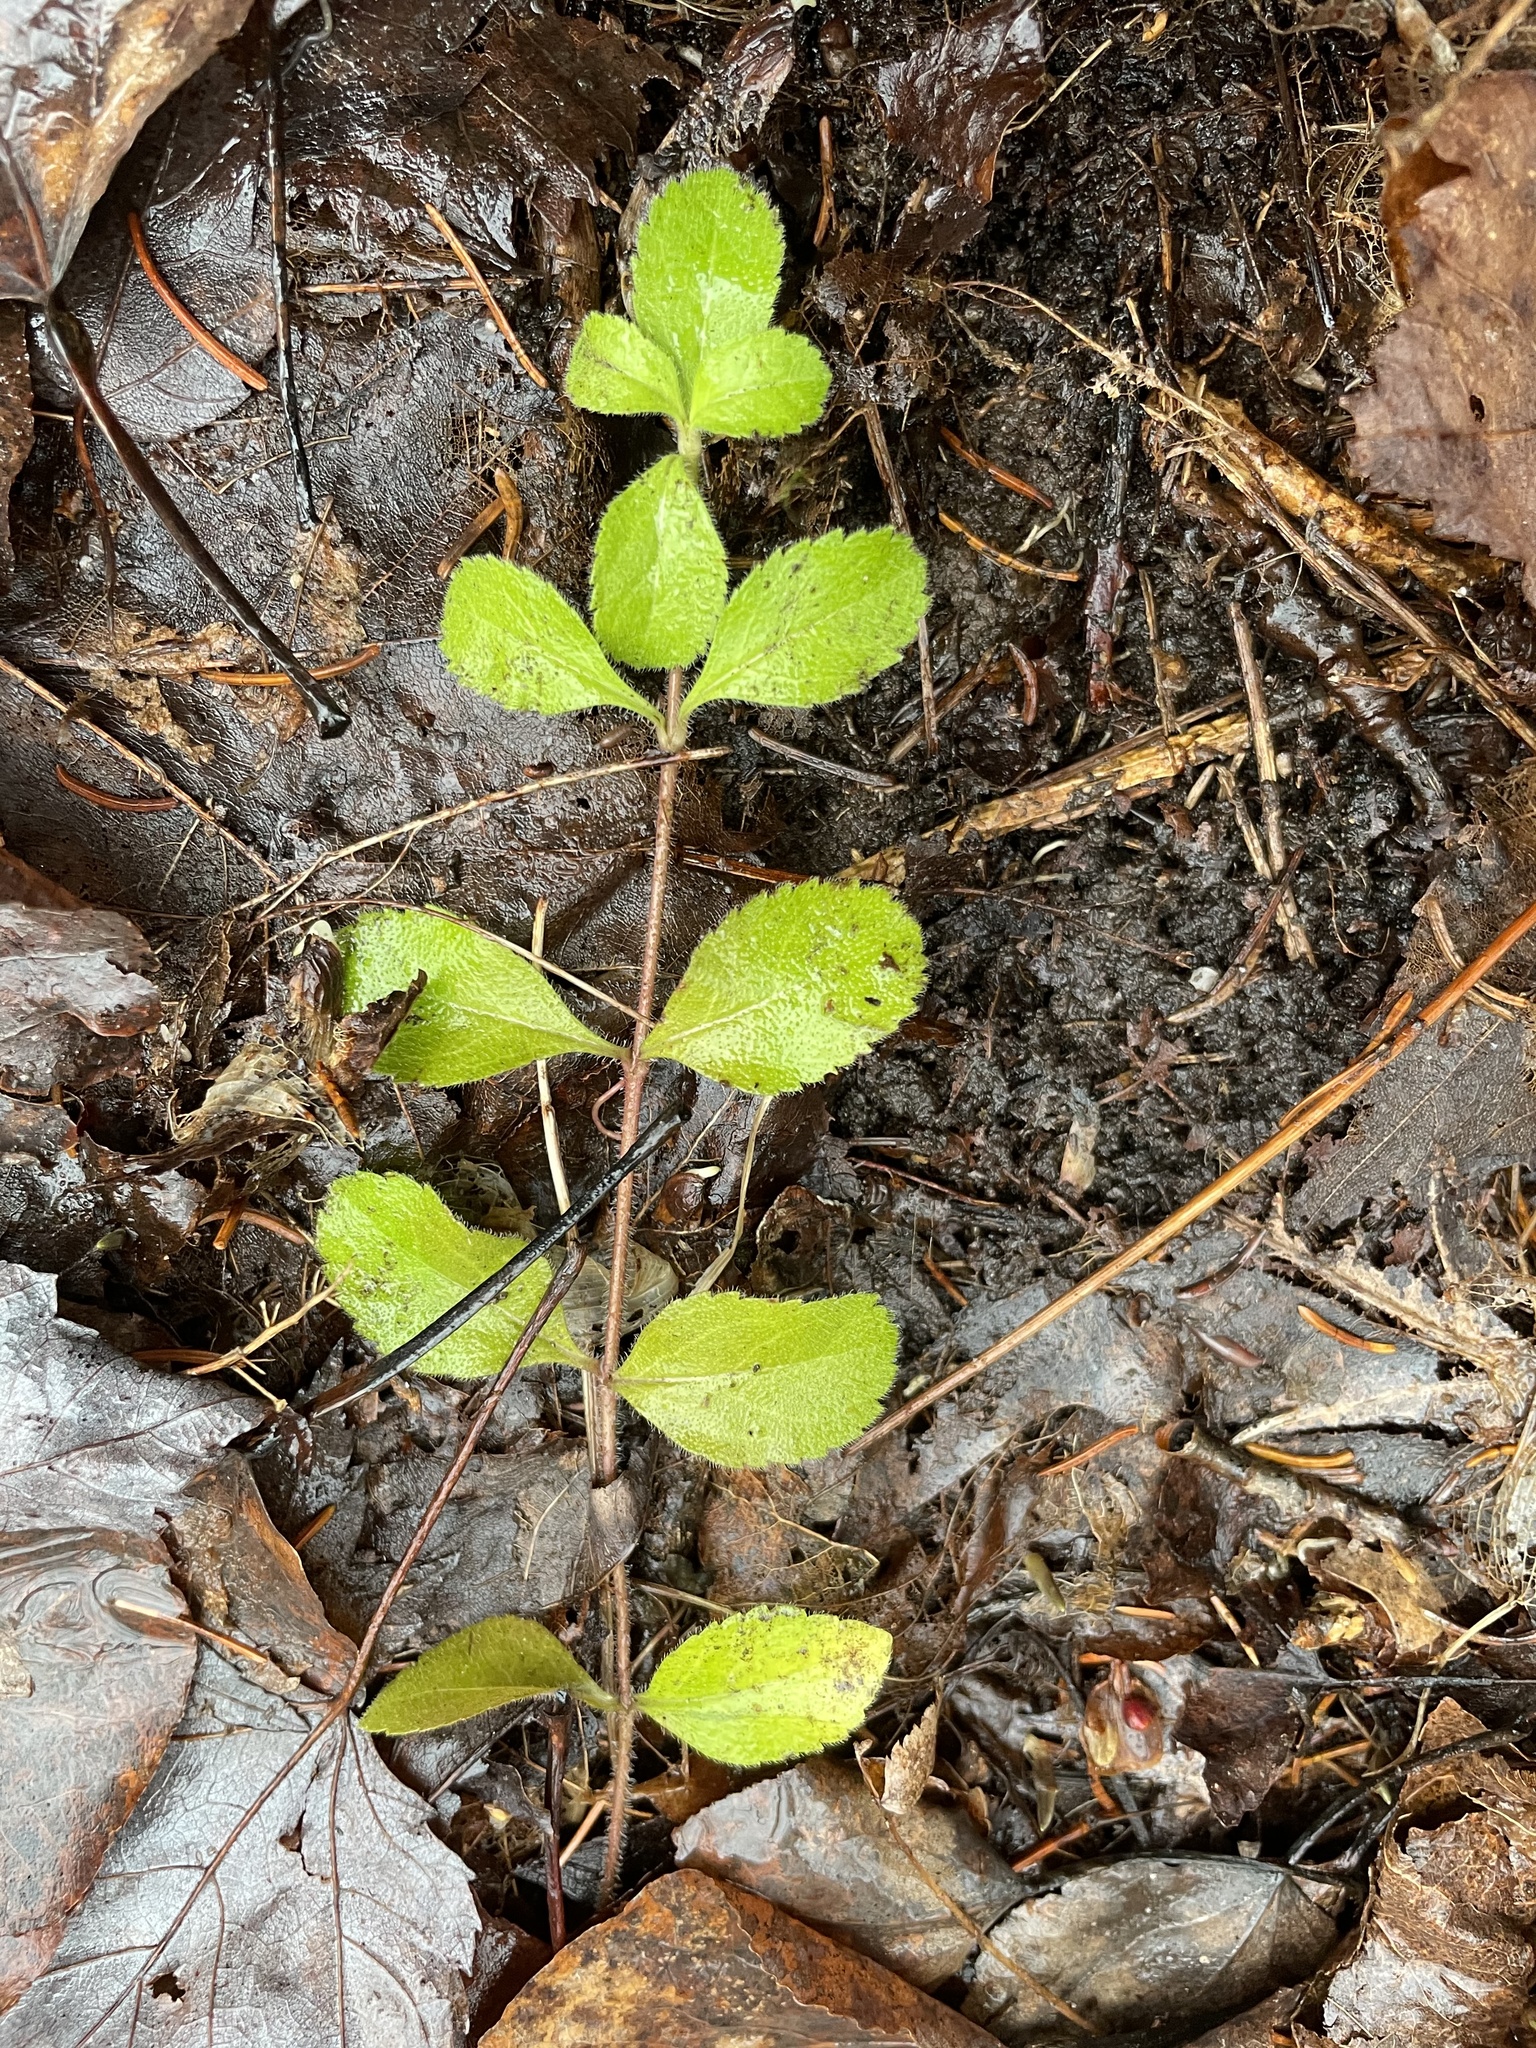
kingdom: Plantae
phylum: Tracheophyta
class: Magnoliopsida
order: Lamiales
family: Plantaginaceae
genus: Veronica
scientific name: Veronica officinalis
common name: Common speedwell
